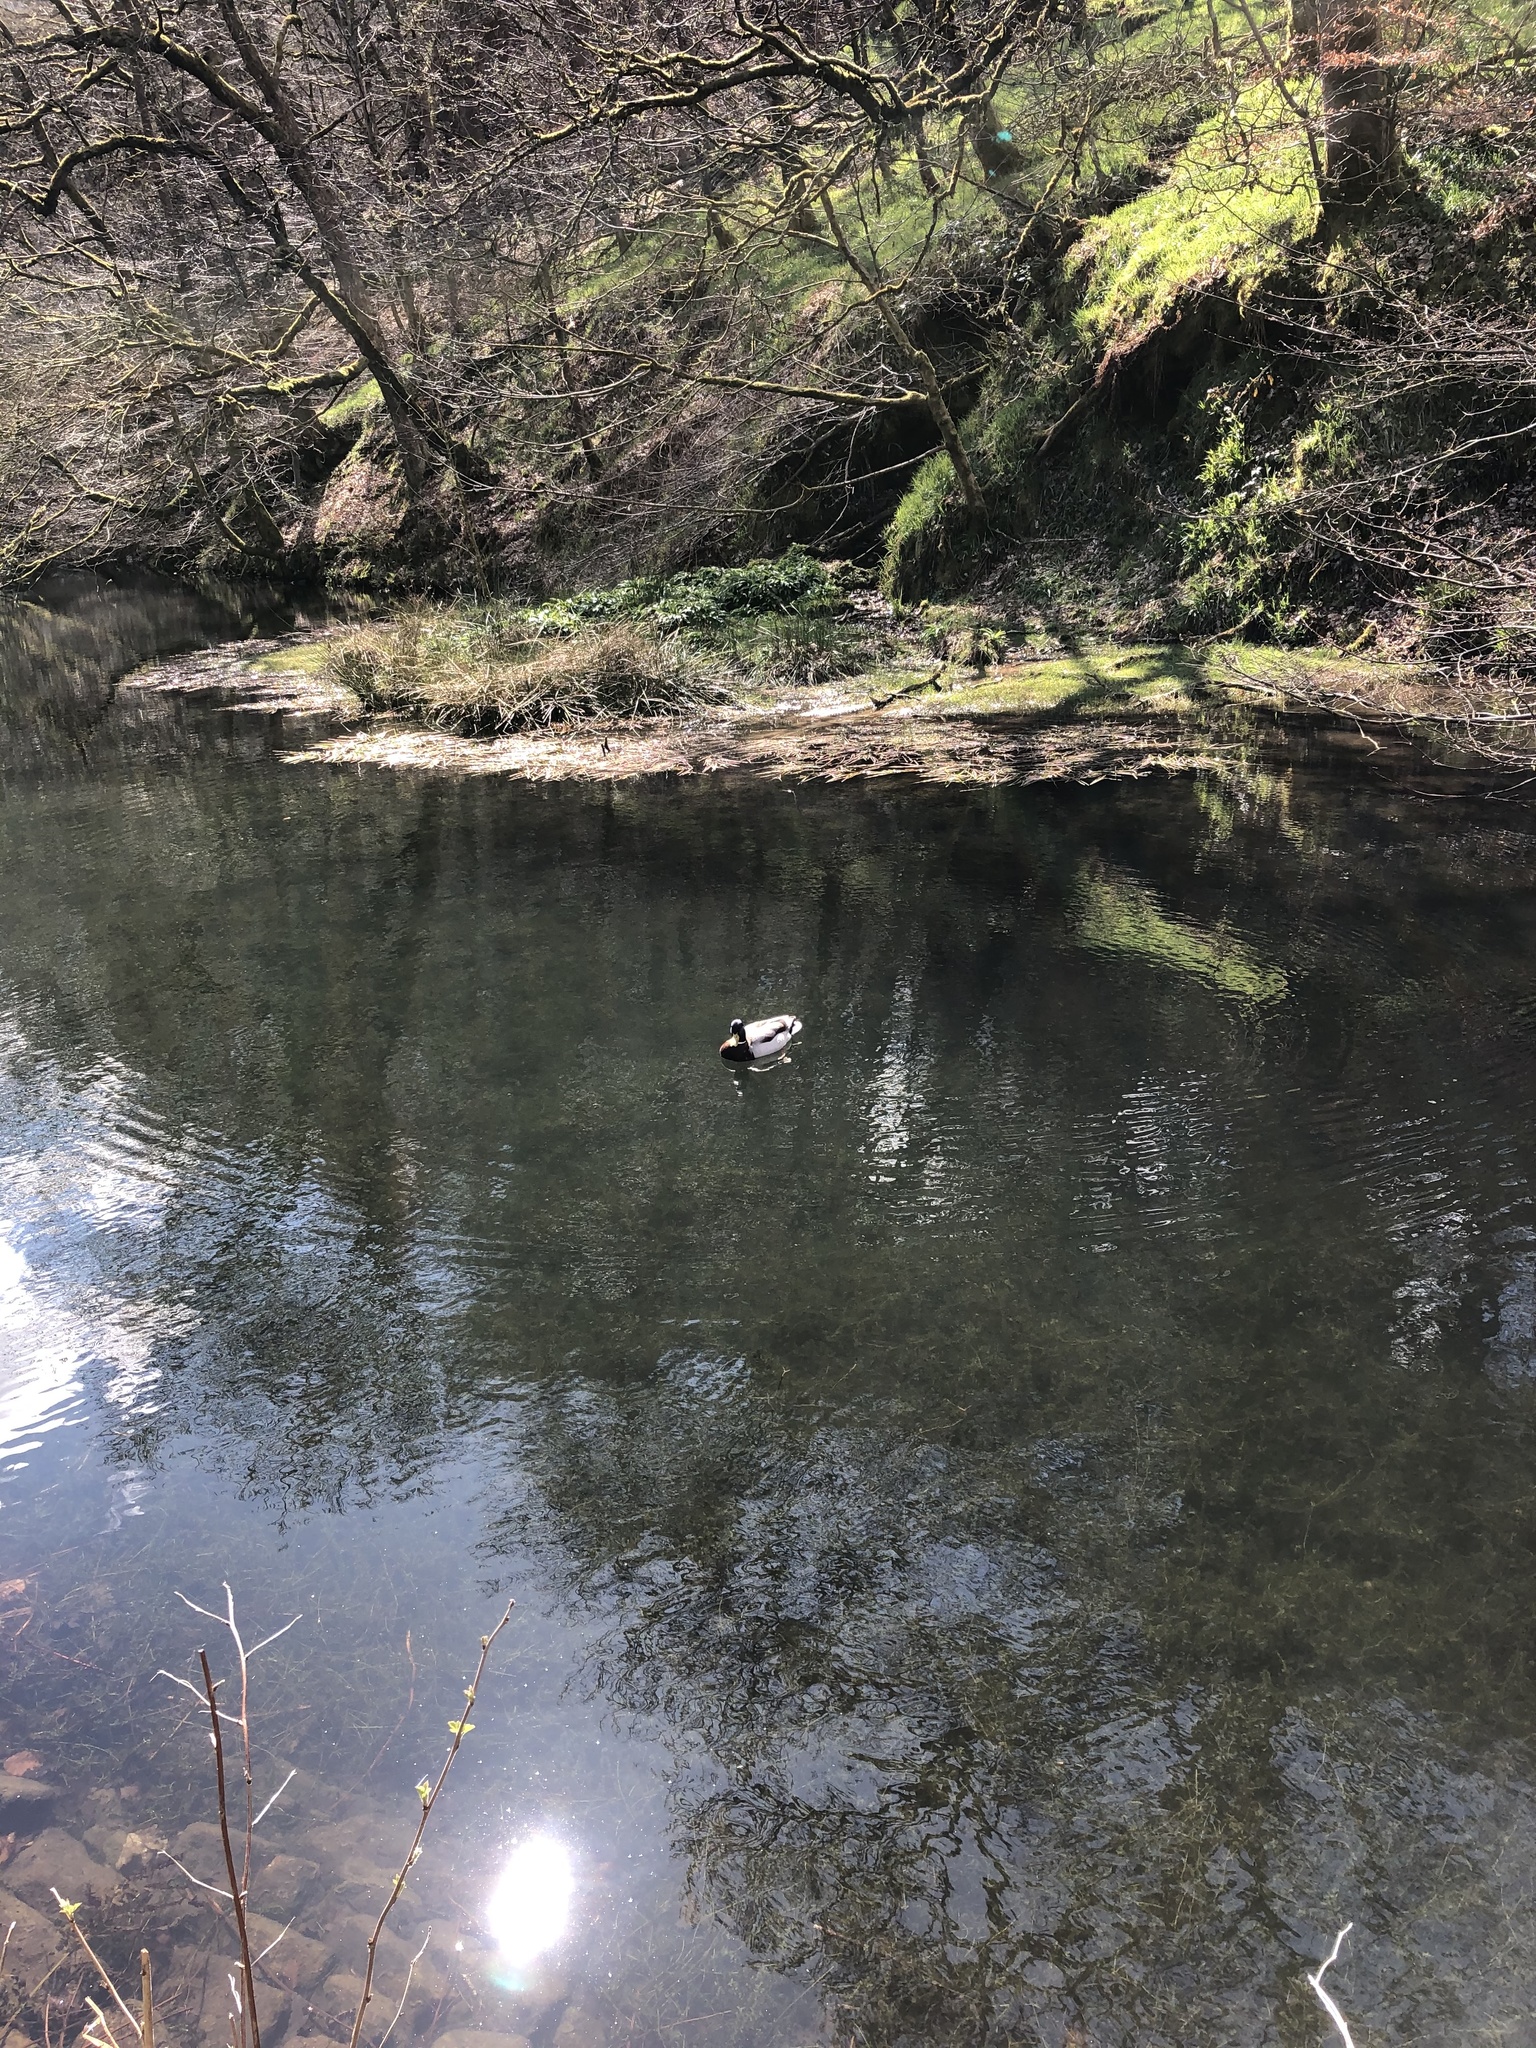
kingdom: Animalia
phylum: Chordata
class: Aves
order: Anseriformes
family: Anatidae
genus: Anas
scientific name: Anas platyrhynchos
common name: Mallard
